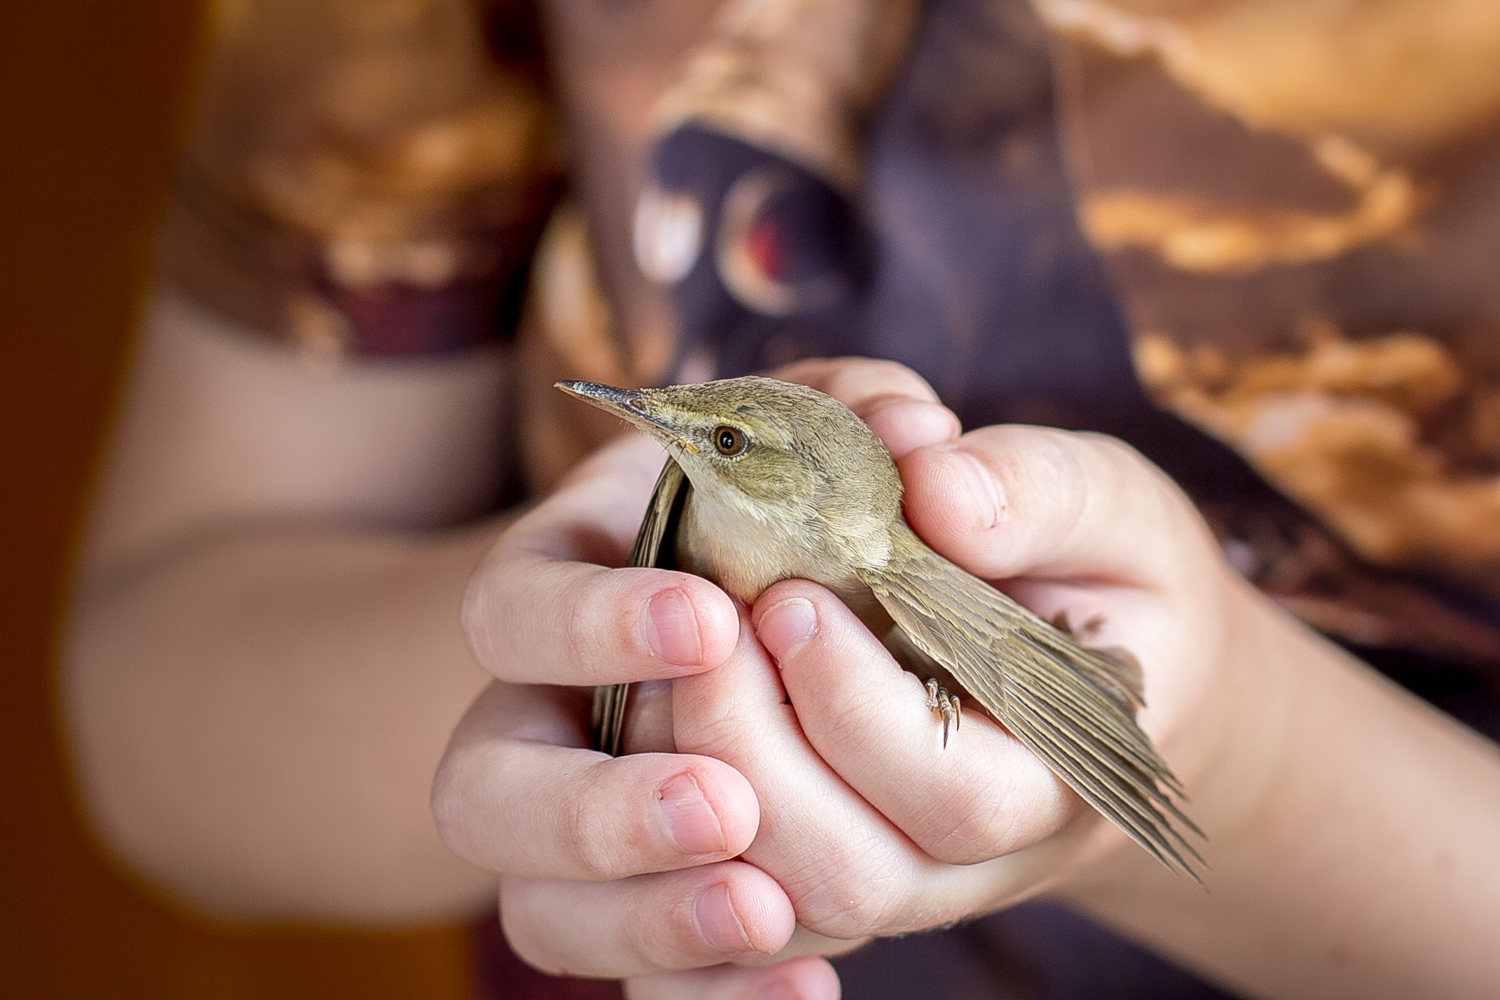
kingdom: Animalia
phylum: Chordata
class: Aves
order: Passeriformes
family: Acrocephalidae
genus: Acrocephalus
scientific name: Acrocephalus palustris
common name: Marsh warbler
